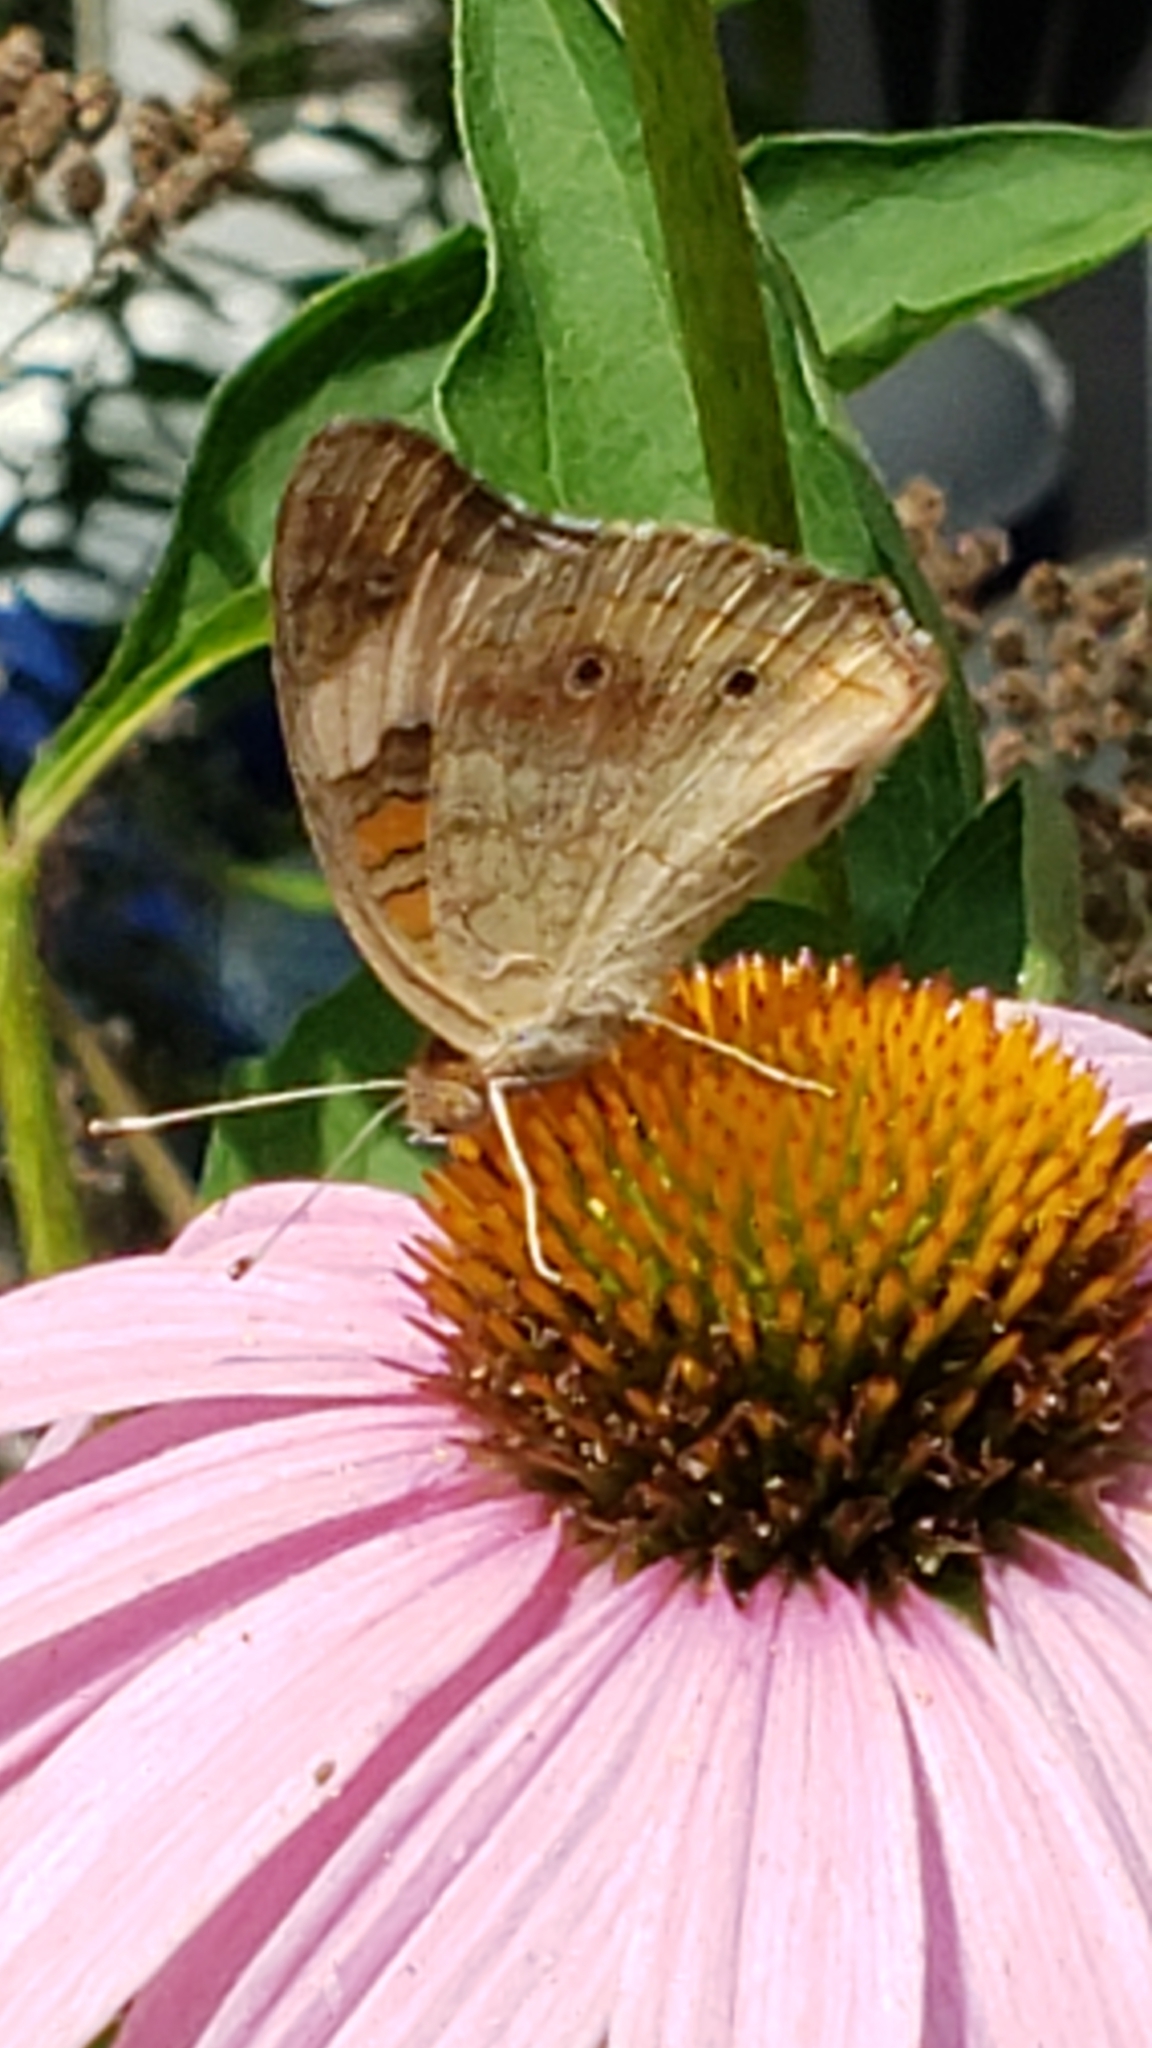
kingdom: Animalia
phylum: Arthropoda
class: Insecta
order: Lepidoptera
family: Nymphalidae
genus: Junonia
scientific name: Junonia coenia
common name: Common buckeye
